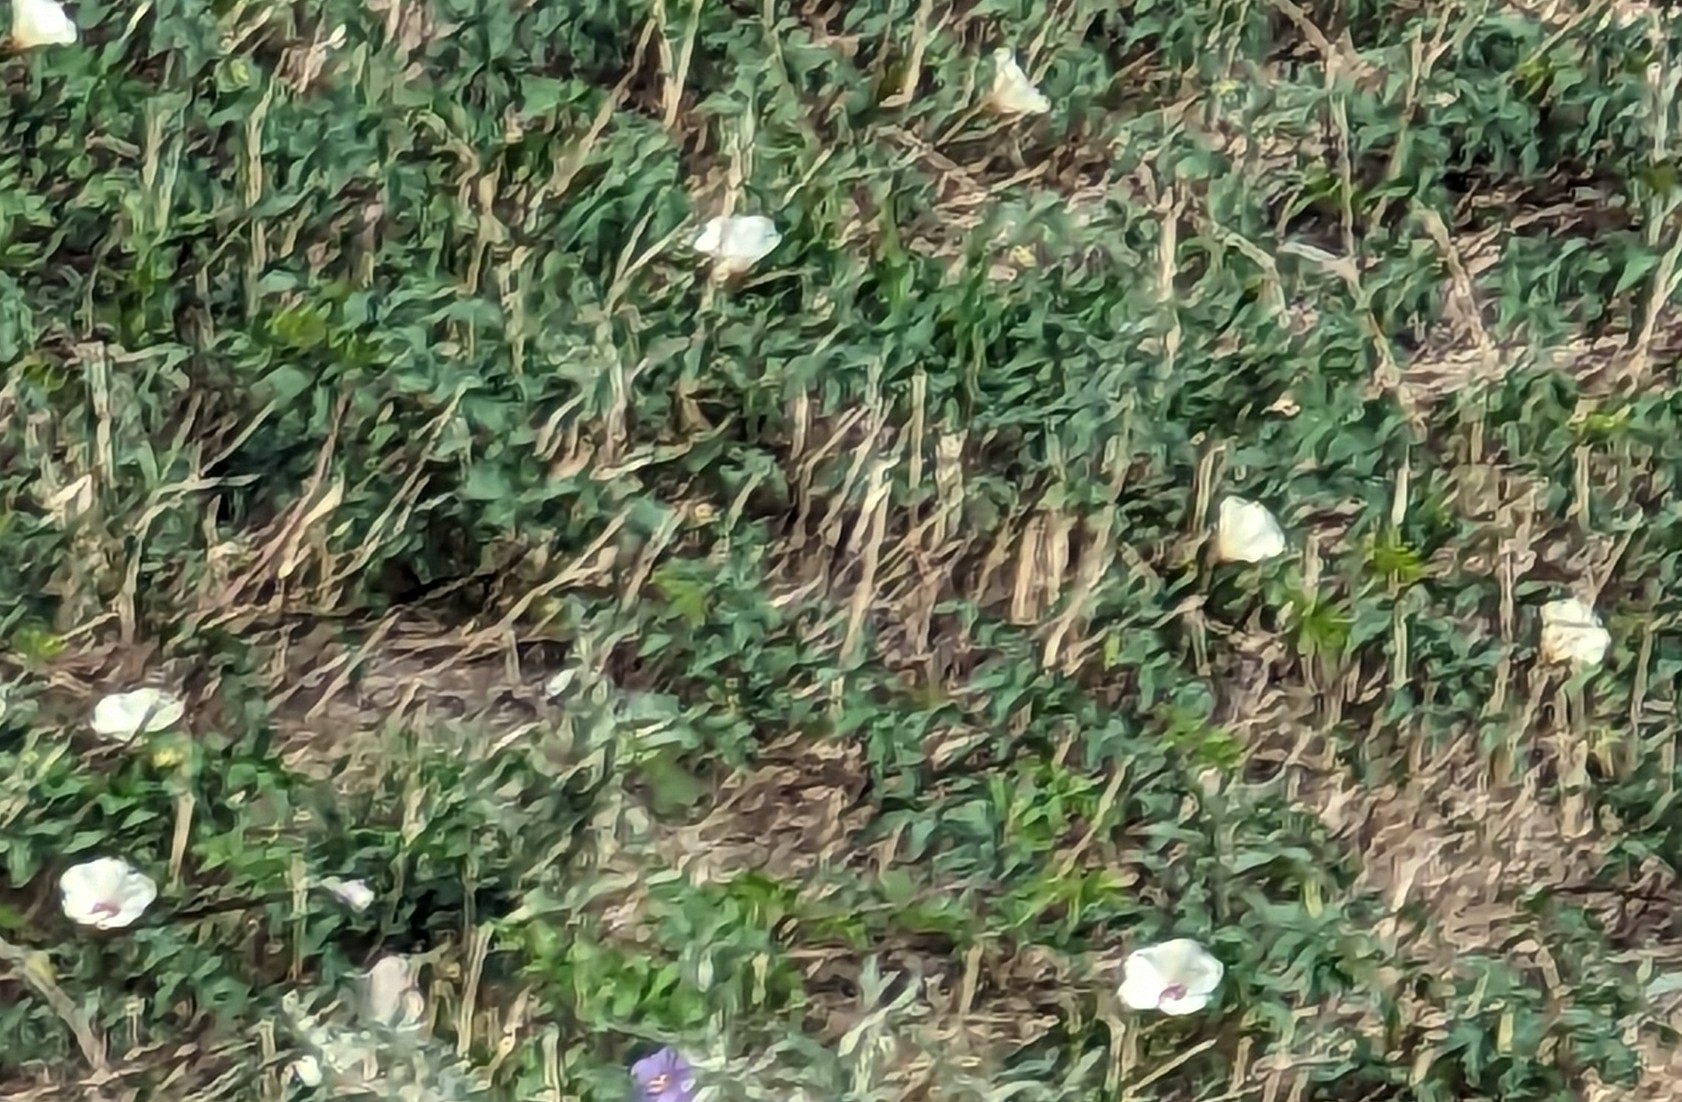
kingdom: Plantae
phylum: Tracheophyta
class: Magnoliopsida
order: Solanales
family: Convolvulaceae
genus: Distimake
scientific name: Distimake dissectus
